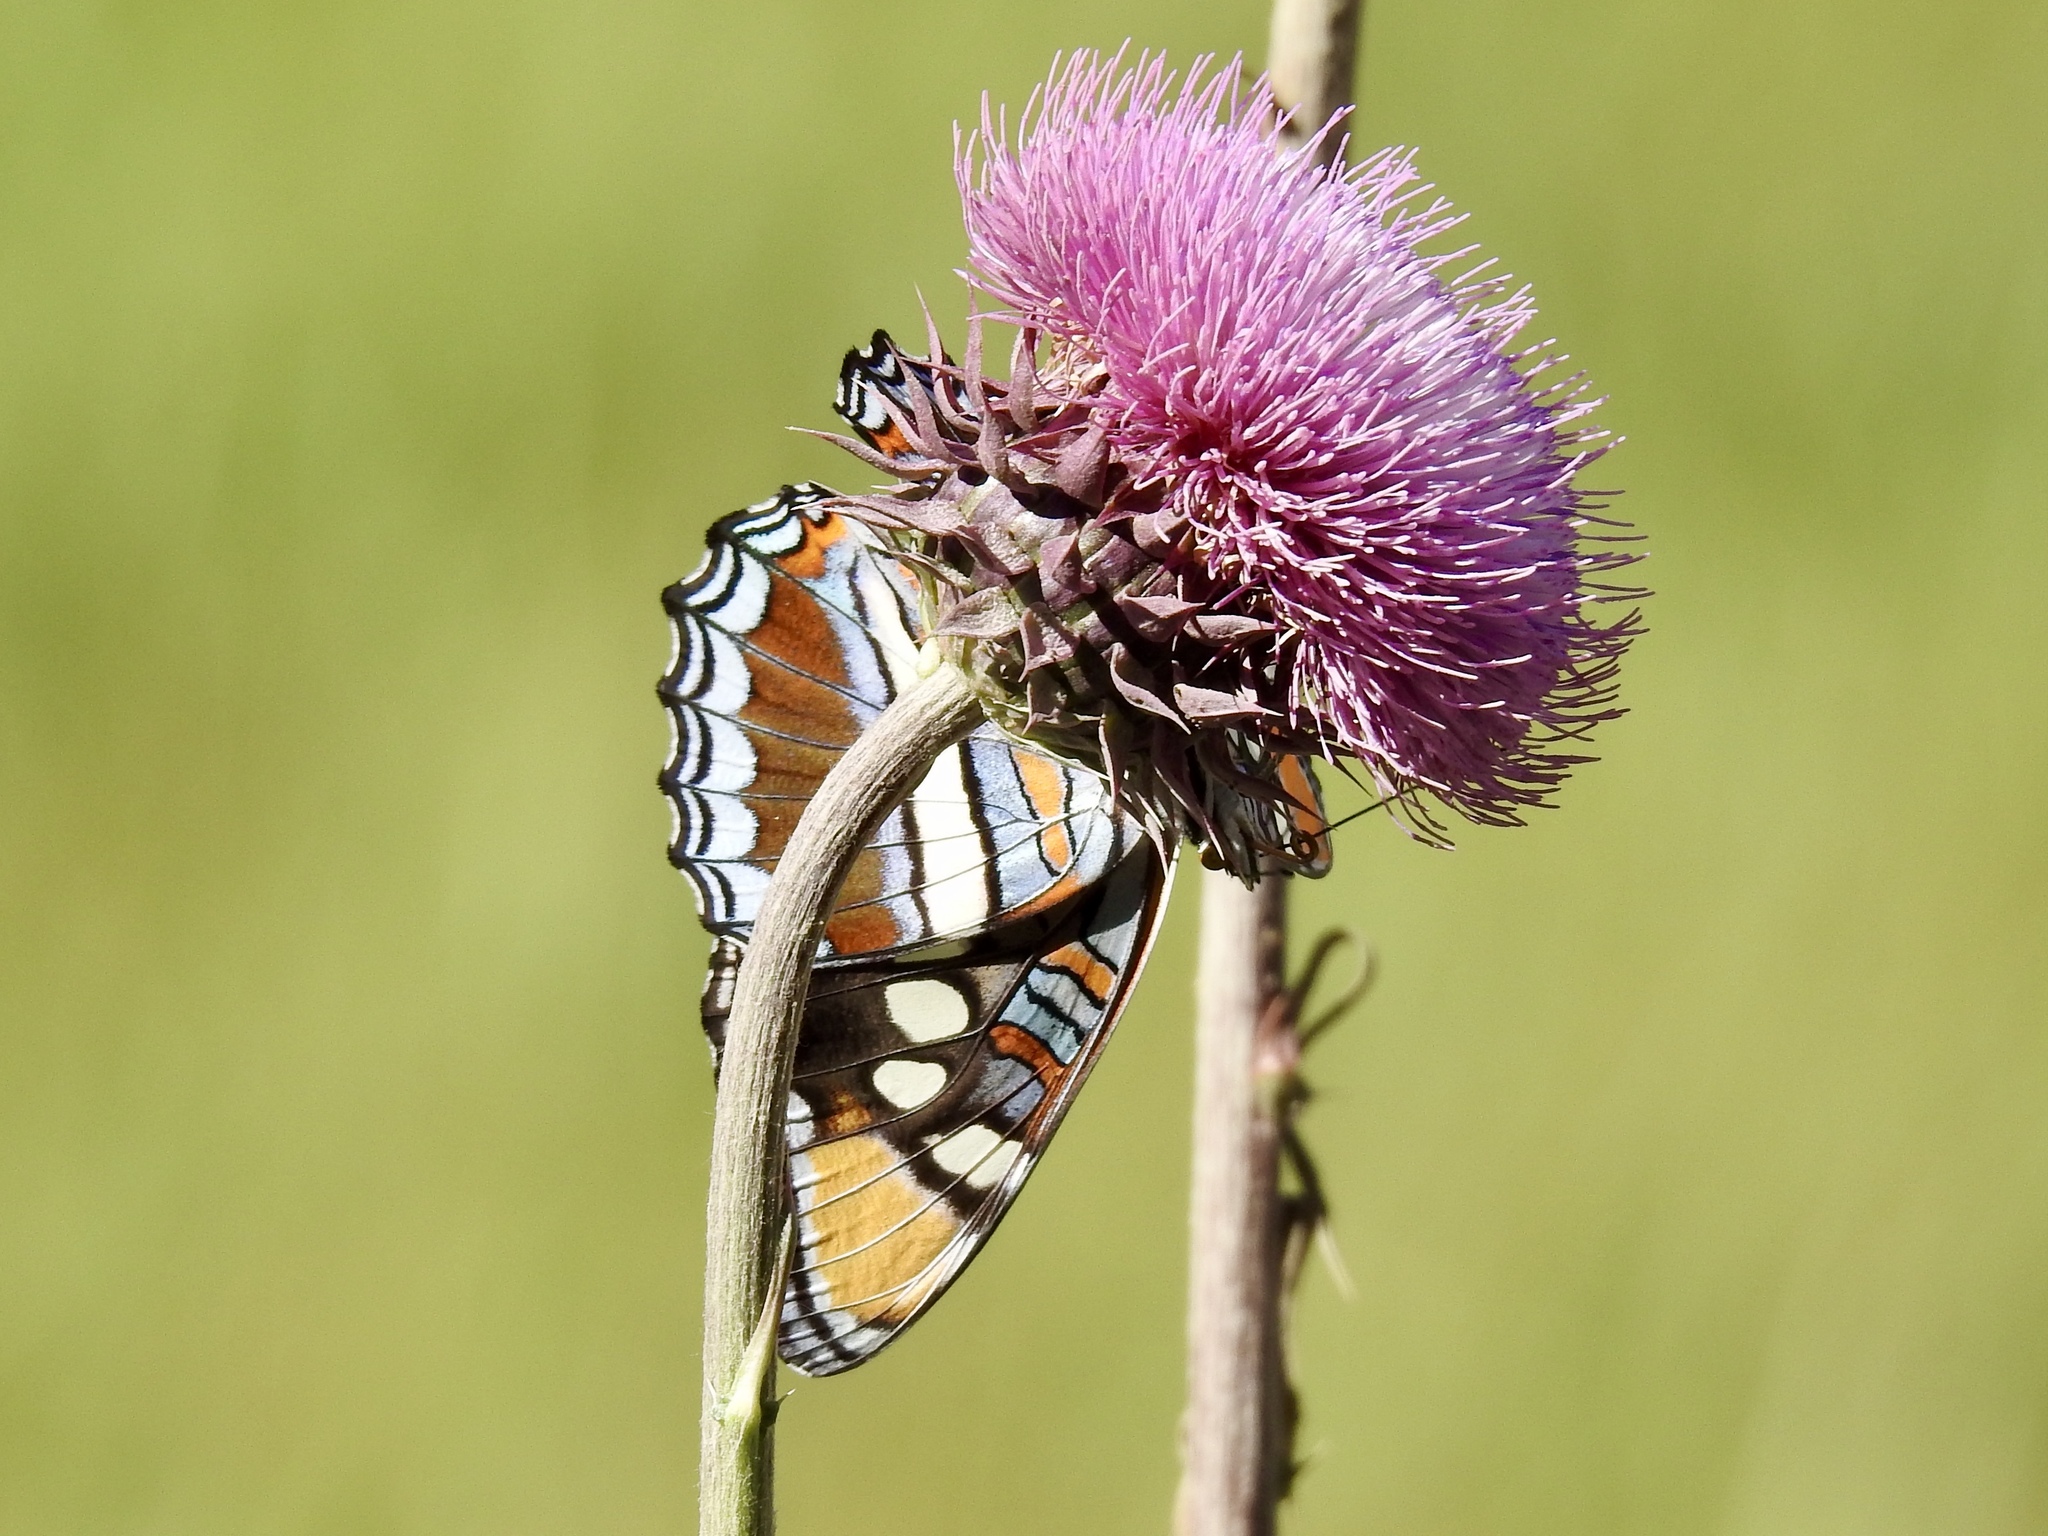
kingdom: Animalia
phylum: Arthropoda
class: Insecta
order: Lepidoptera
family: Nymphalidae
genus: Limenitis
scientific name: Limenitis bredowii
